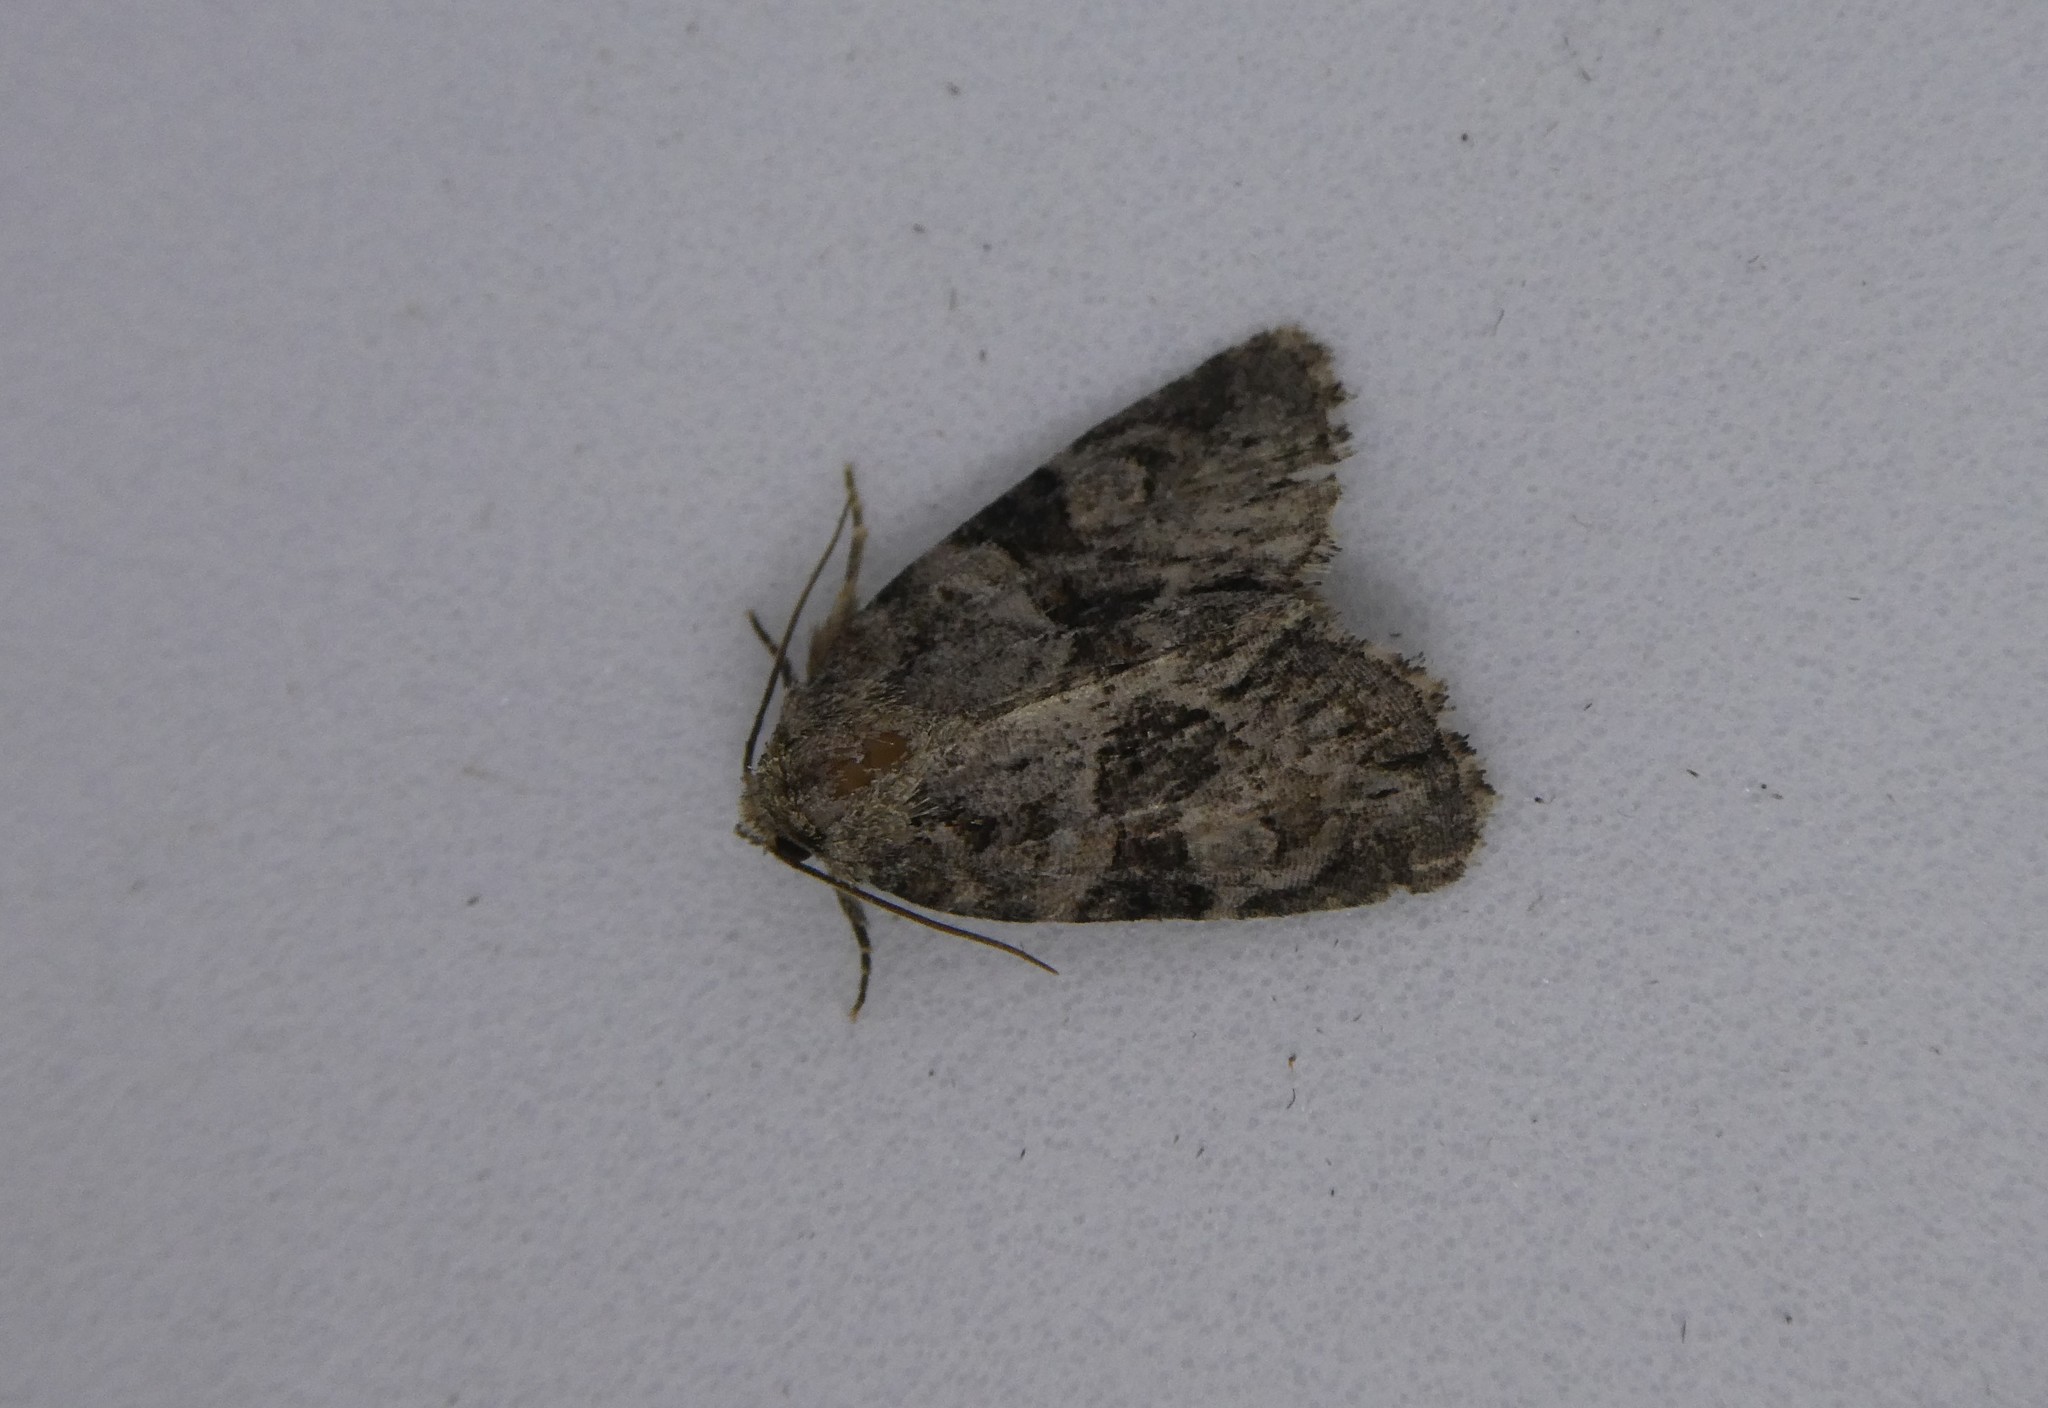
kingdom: Animalia
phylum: Arthropoda
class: Insecta
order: Lepidoptera
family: Noctuidae
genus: Neoligia
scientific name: Neoligia exhausta
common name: Exhausted brocade
